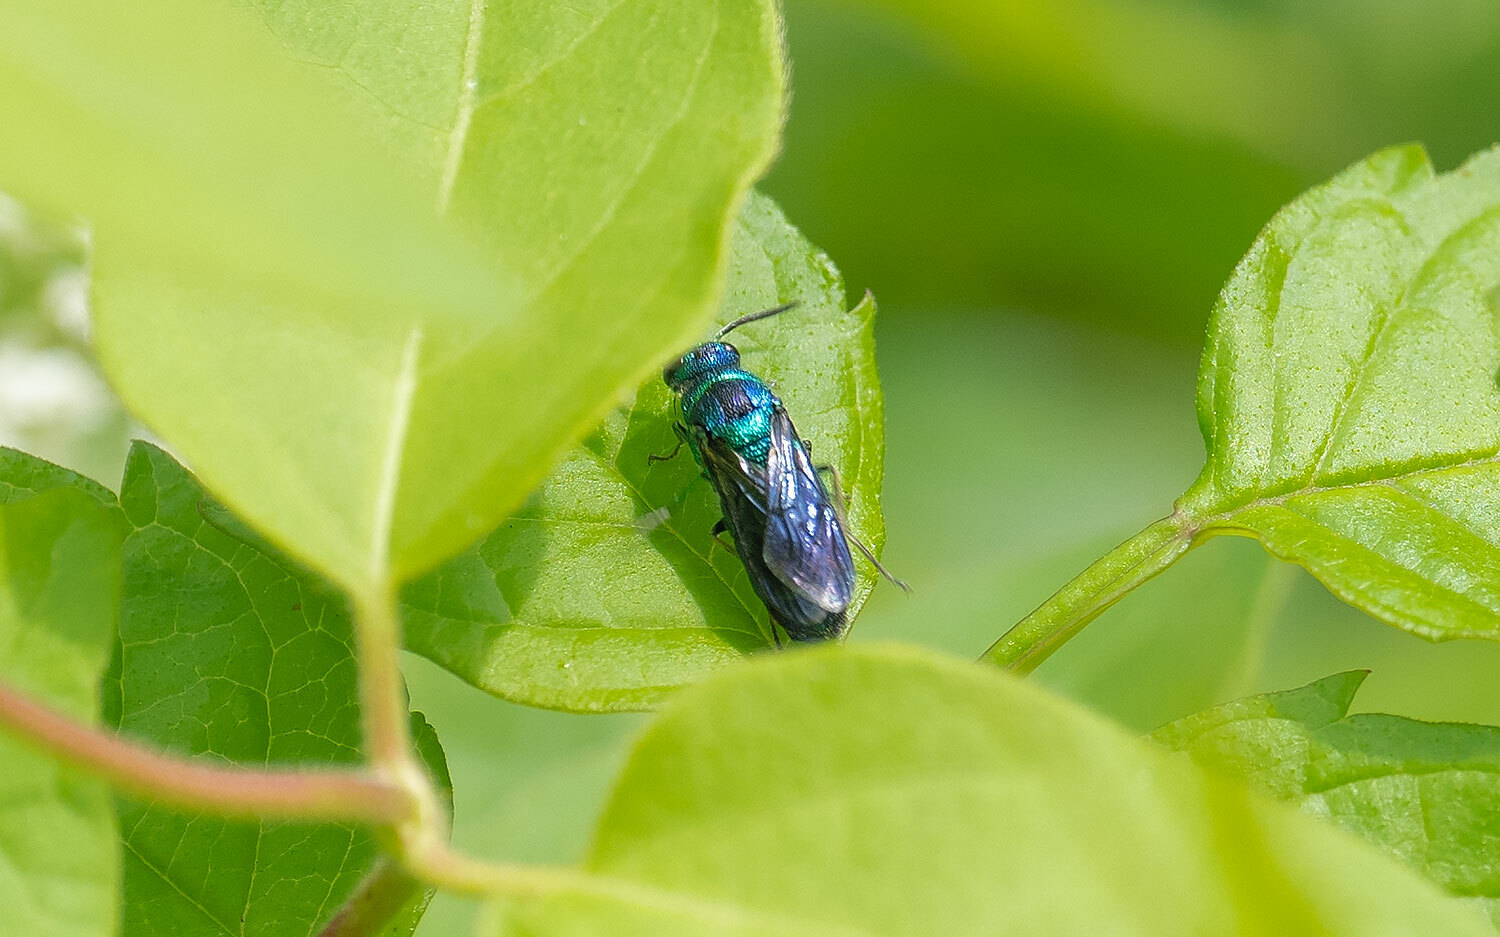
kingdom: Animalia
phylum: Arthropoda
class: Insecta
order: Hymenoptera
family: Chrysididae
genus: Chrysis
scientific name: Chrysis angolensis
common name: Cuckoo wasp
